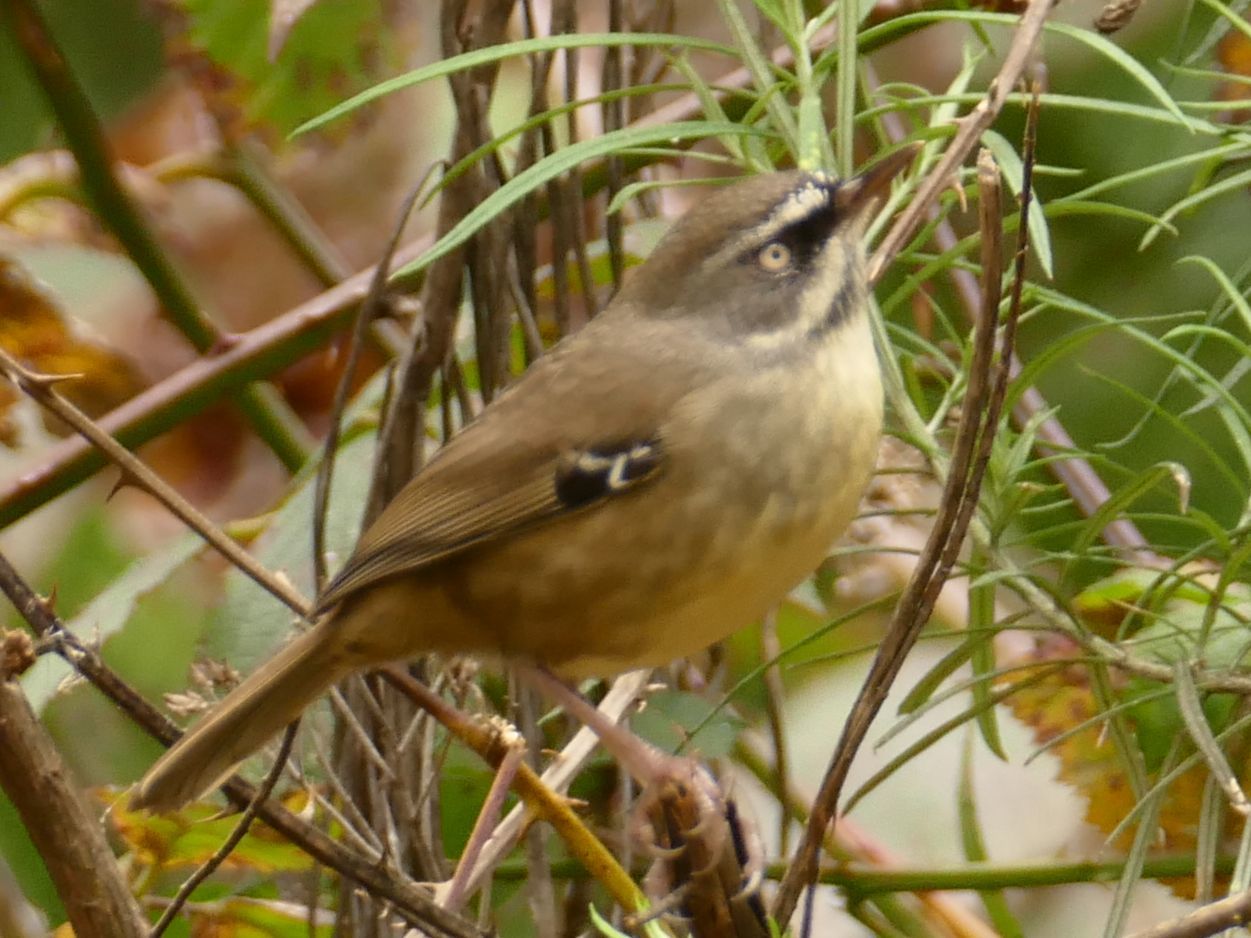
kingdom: Animalia
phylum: Chordata
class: Aves
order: Passeriformes
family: Acanthizidae
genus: Sericornis
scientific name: Sericornis frontalis
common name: White-browed scrubwren
